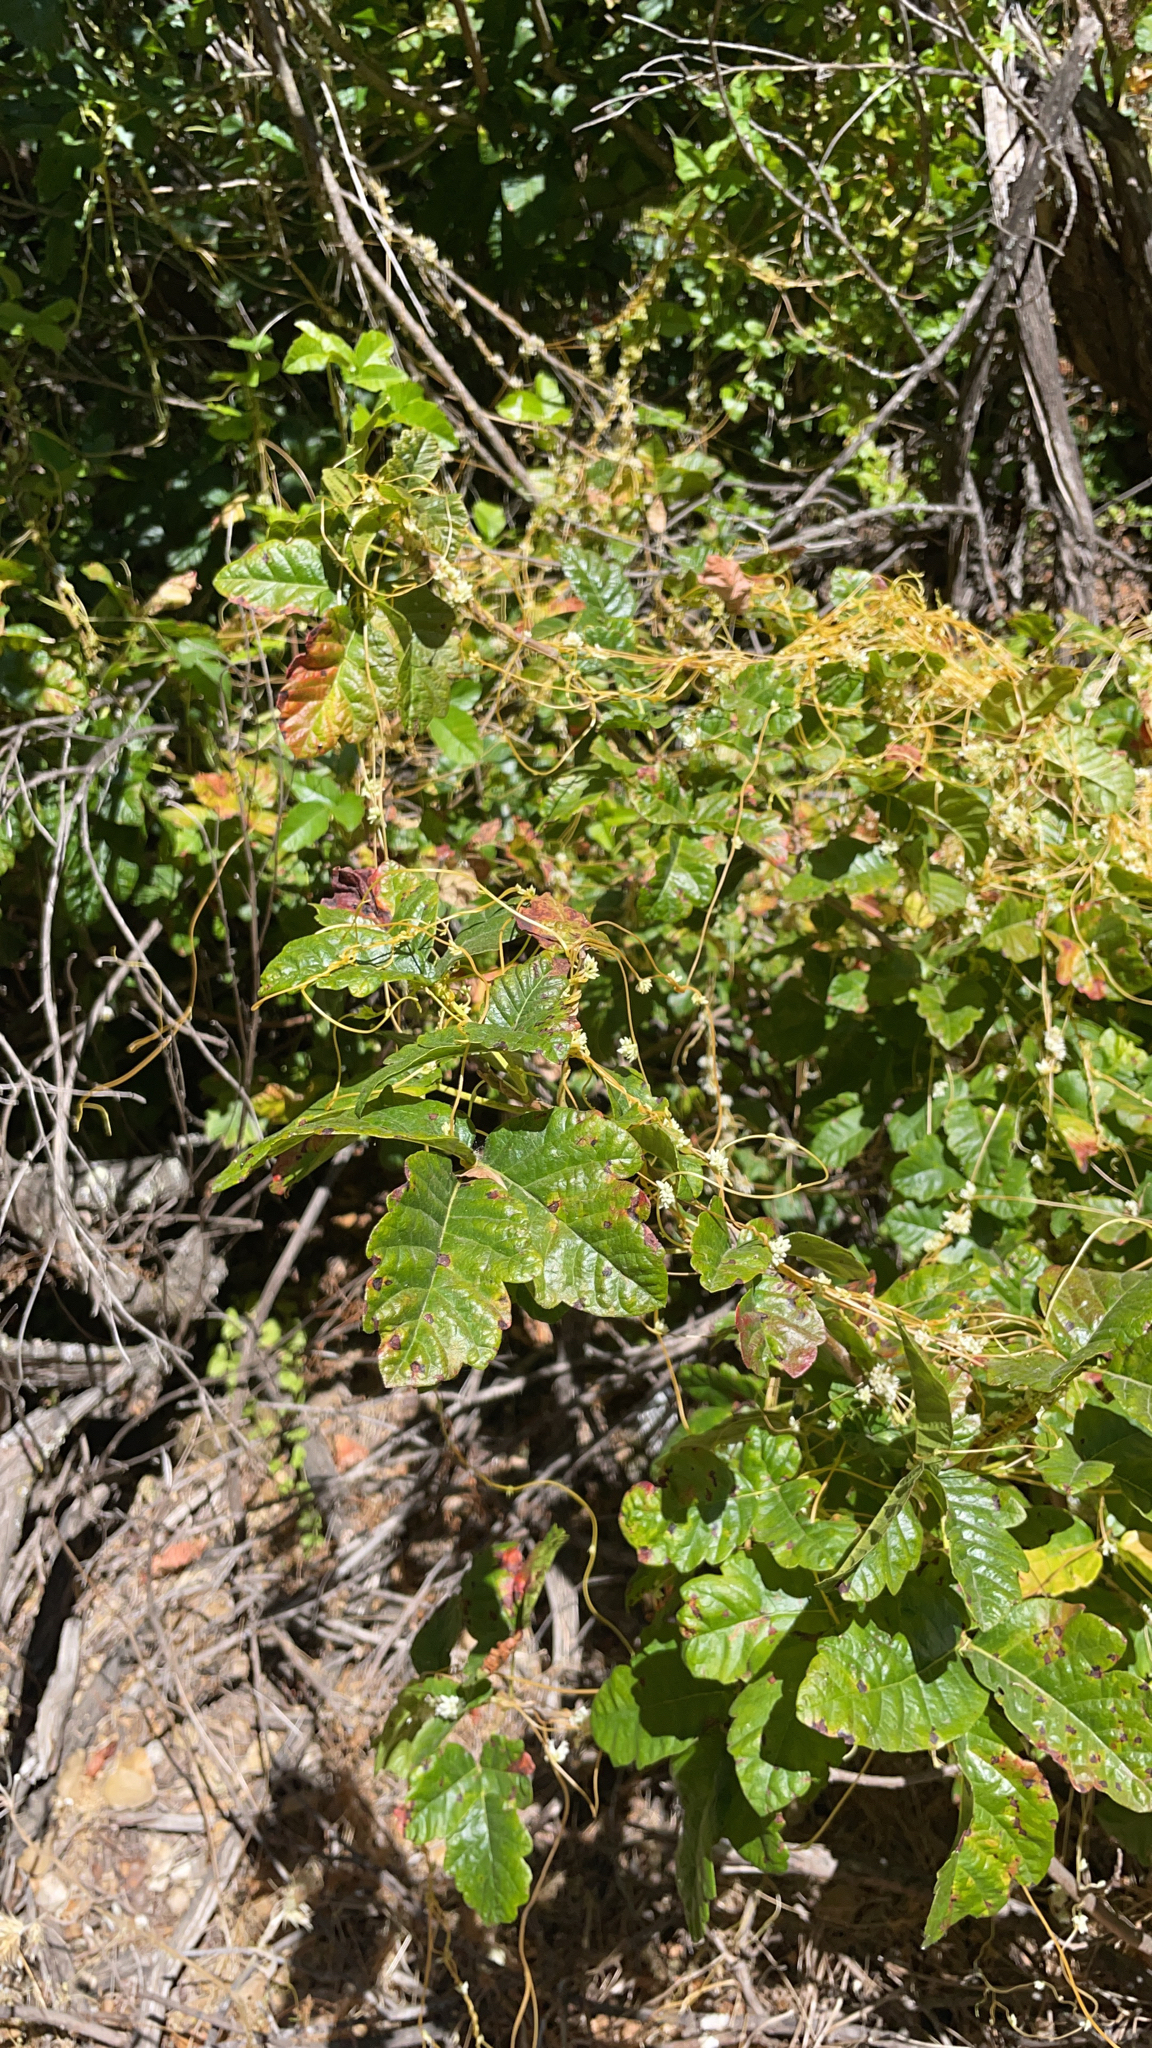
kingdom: Plantae
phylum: Tracheophyta
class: Magnoliopsida
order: Sapindales
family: Anacardiaceae
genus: Toxicodendron
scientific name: Toxicodendron diversilobum
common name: Pacific poison-oak
